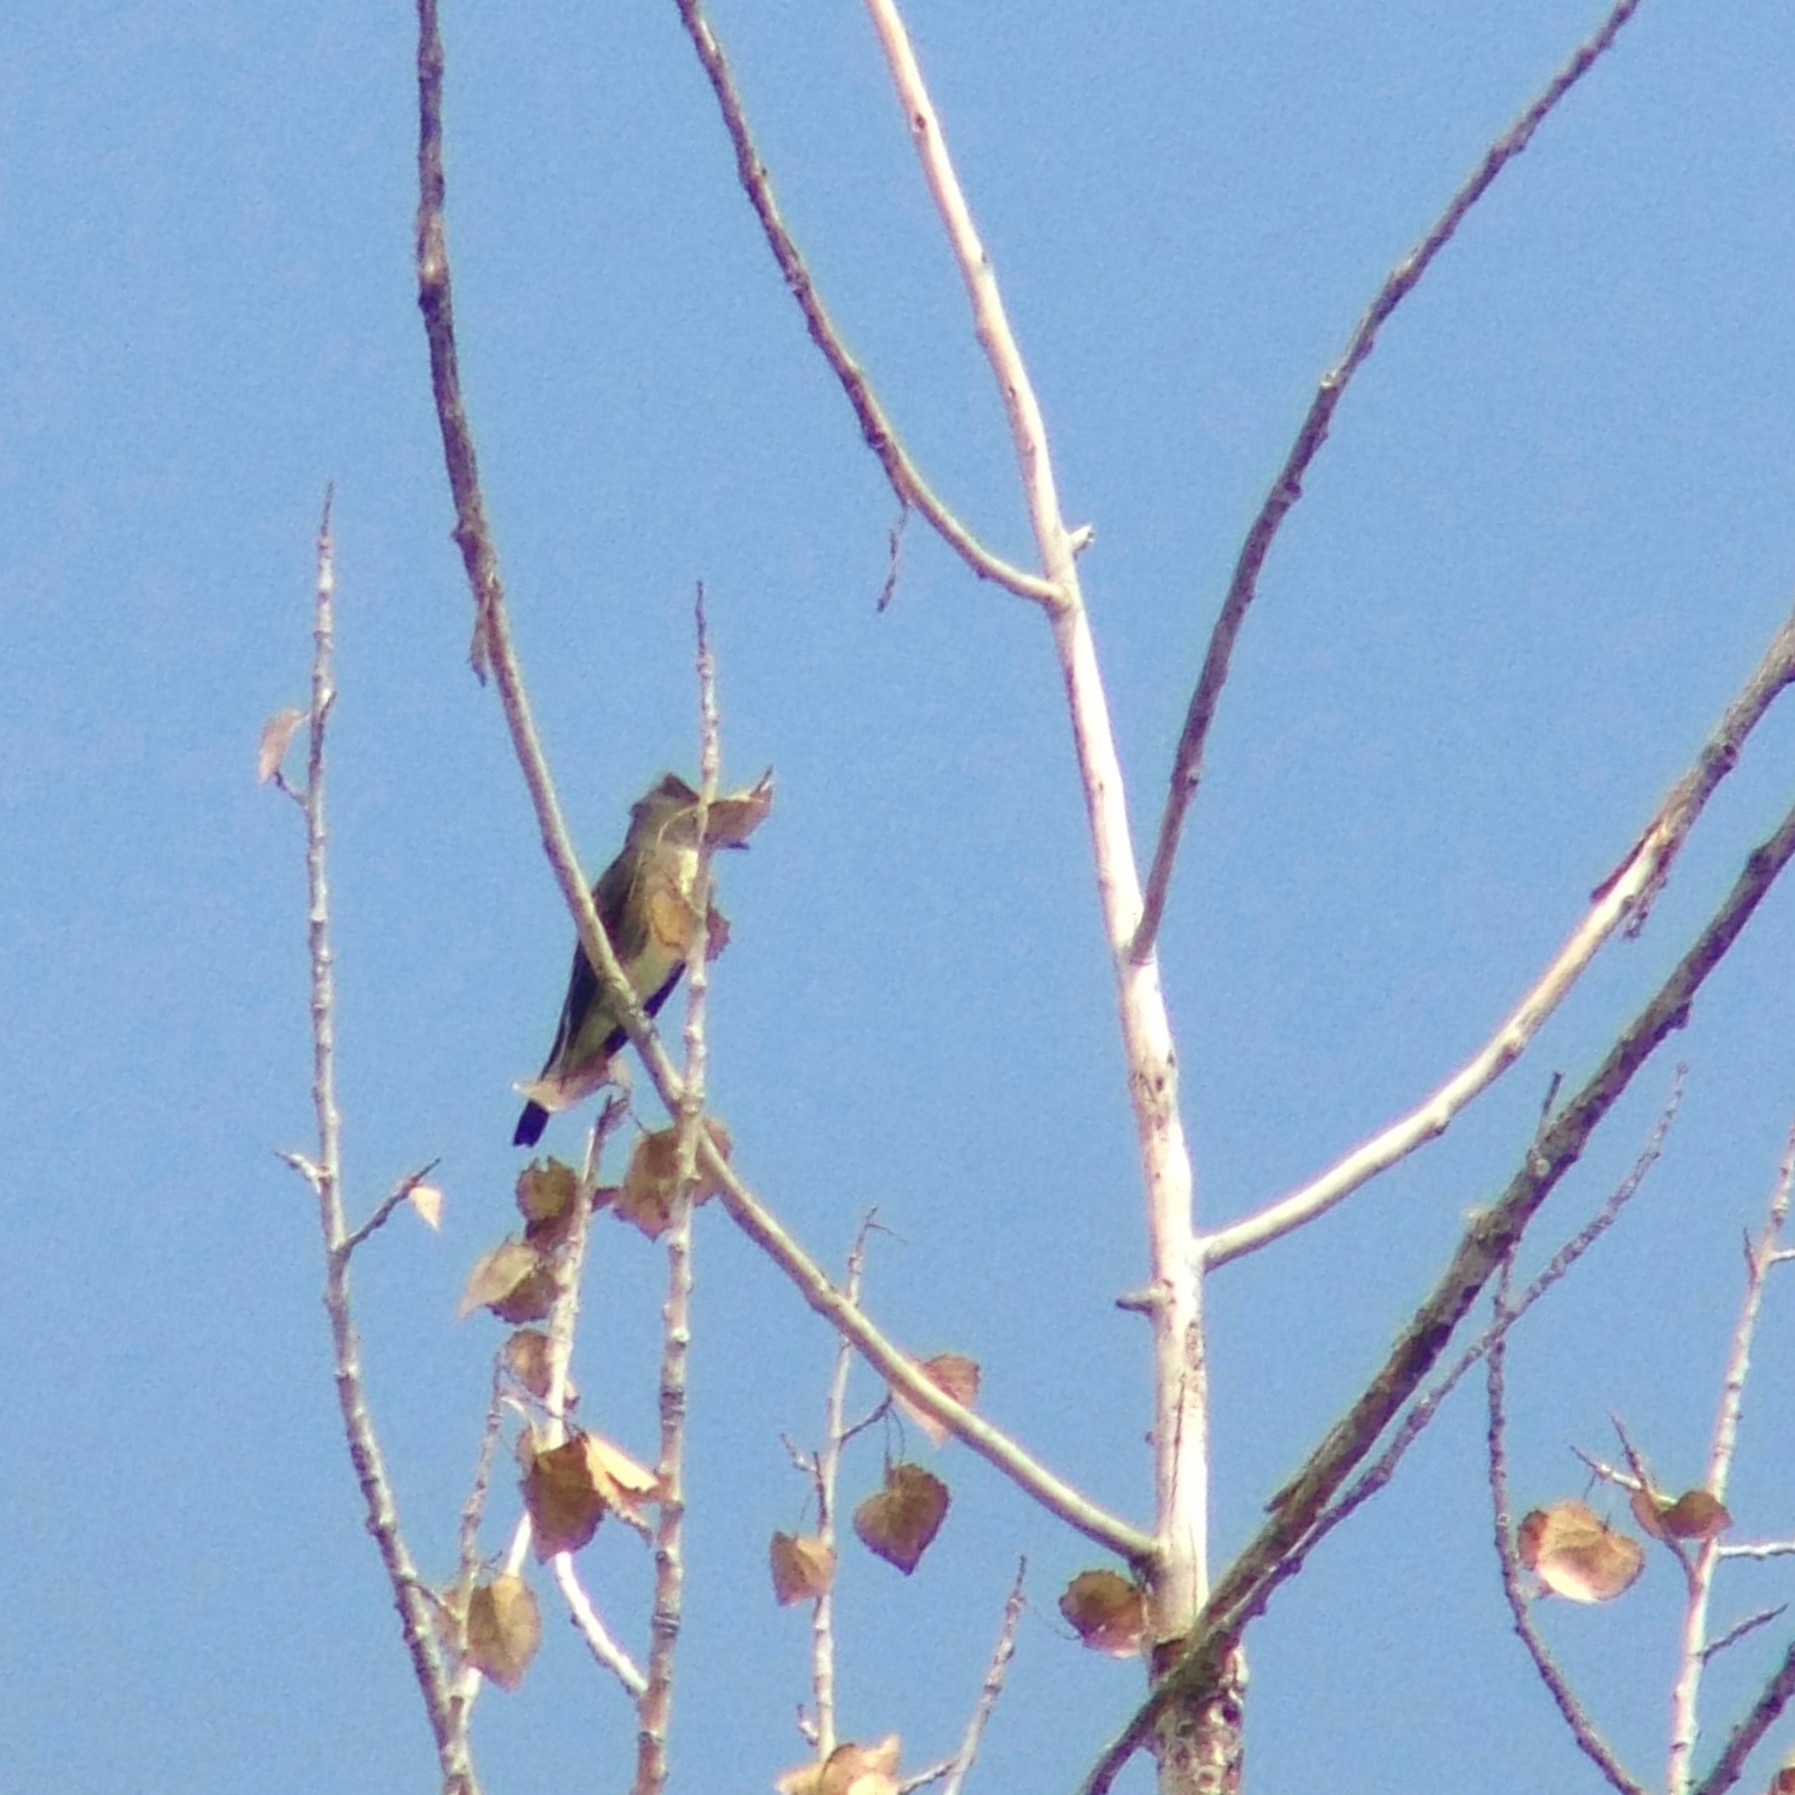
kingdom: Animalia
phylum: Chordata
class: Aves
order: Passeriformes
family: Tyrannidae
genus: Contopus
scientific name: Contopus cooperi
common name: Olive-sided flycatcher
